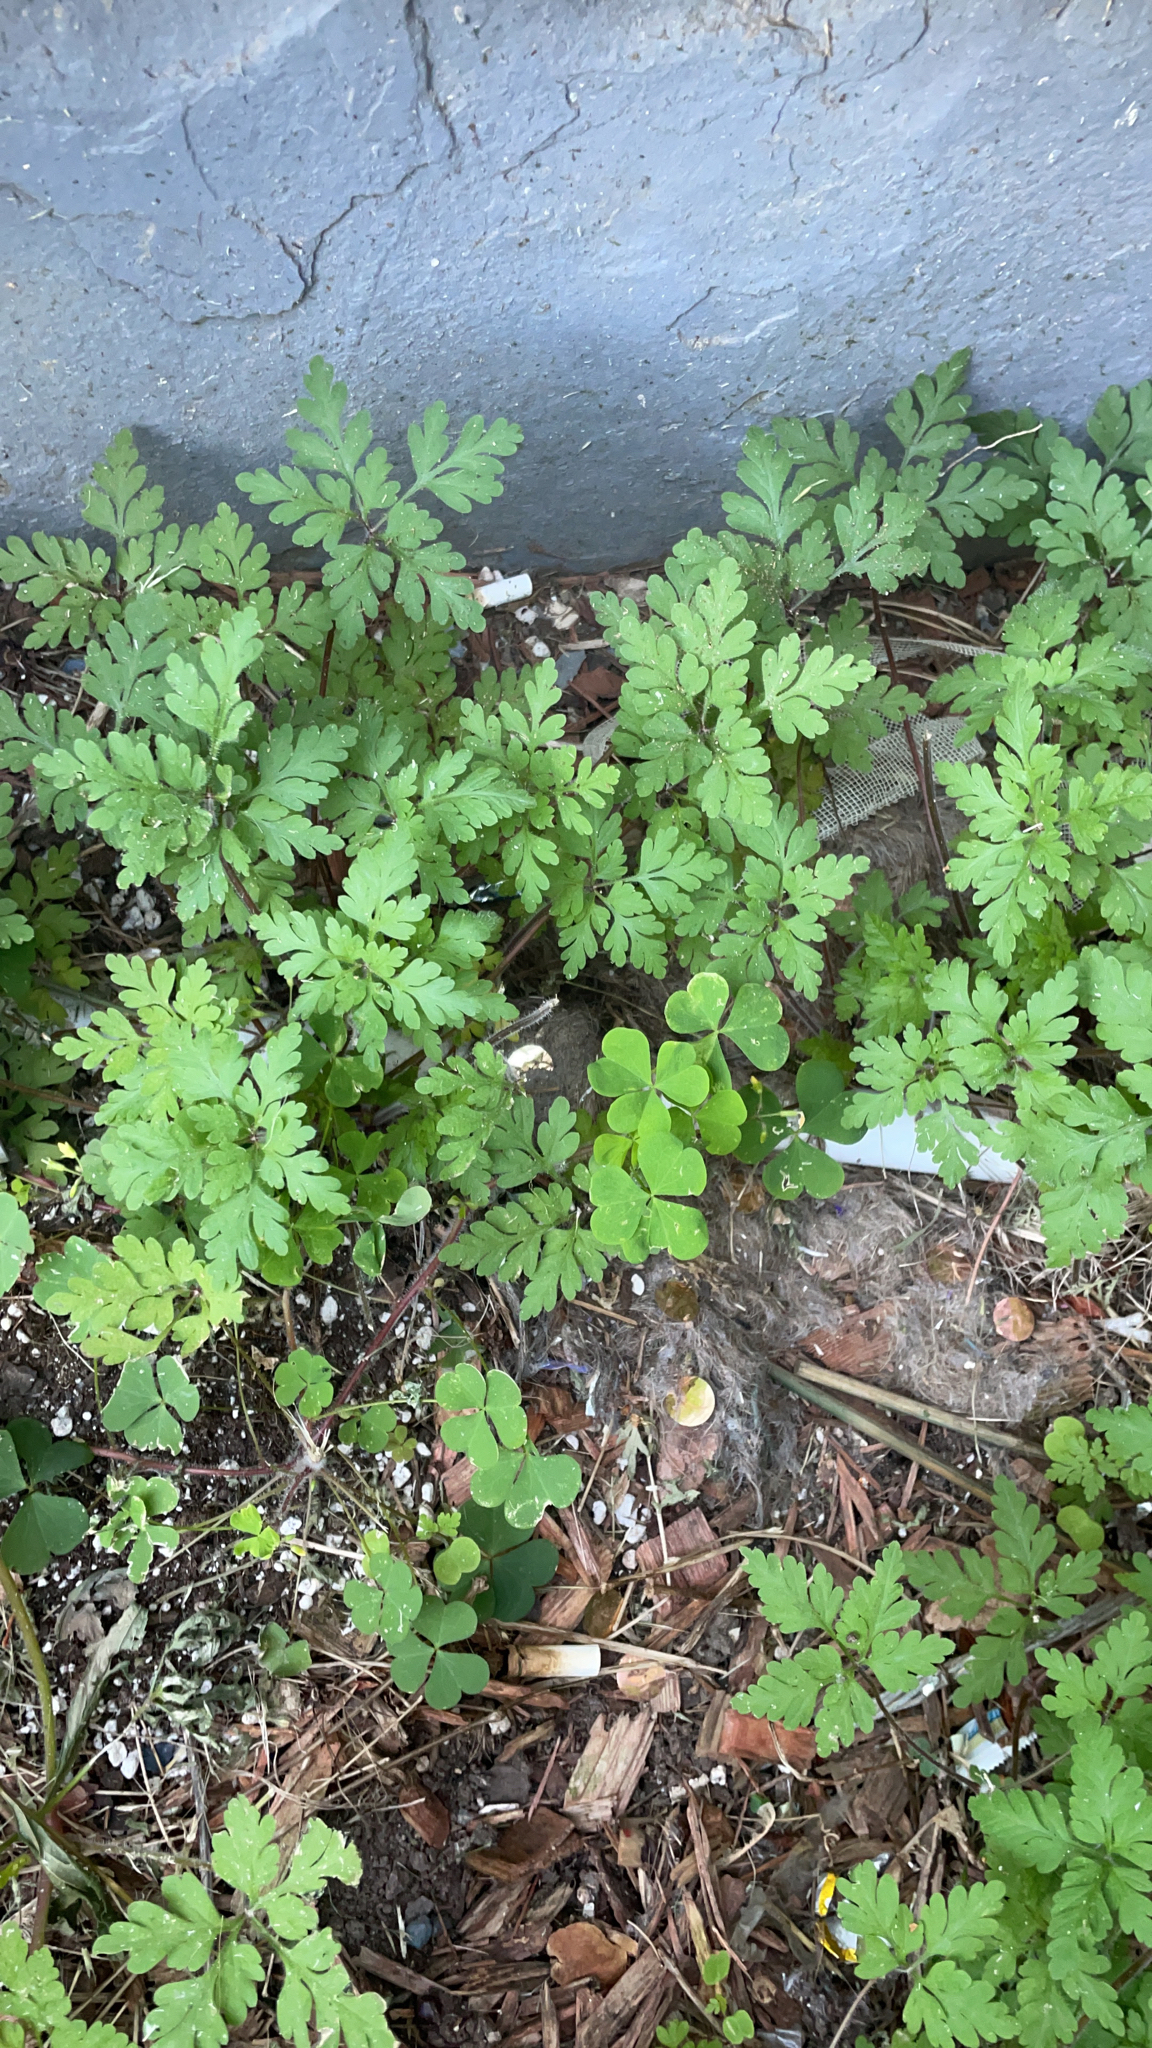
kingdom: Plantae
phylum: Tracheophyta
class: Magnoliopsida
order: Geraniales
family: Geraniaceae
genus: Geranium
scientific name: Geranium robertianum
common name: Herb-robert
